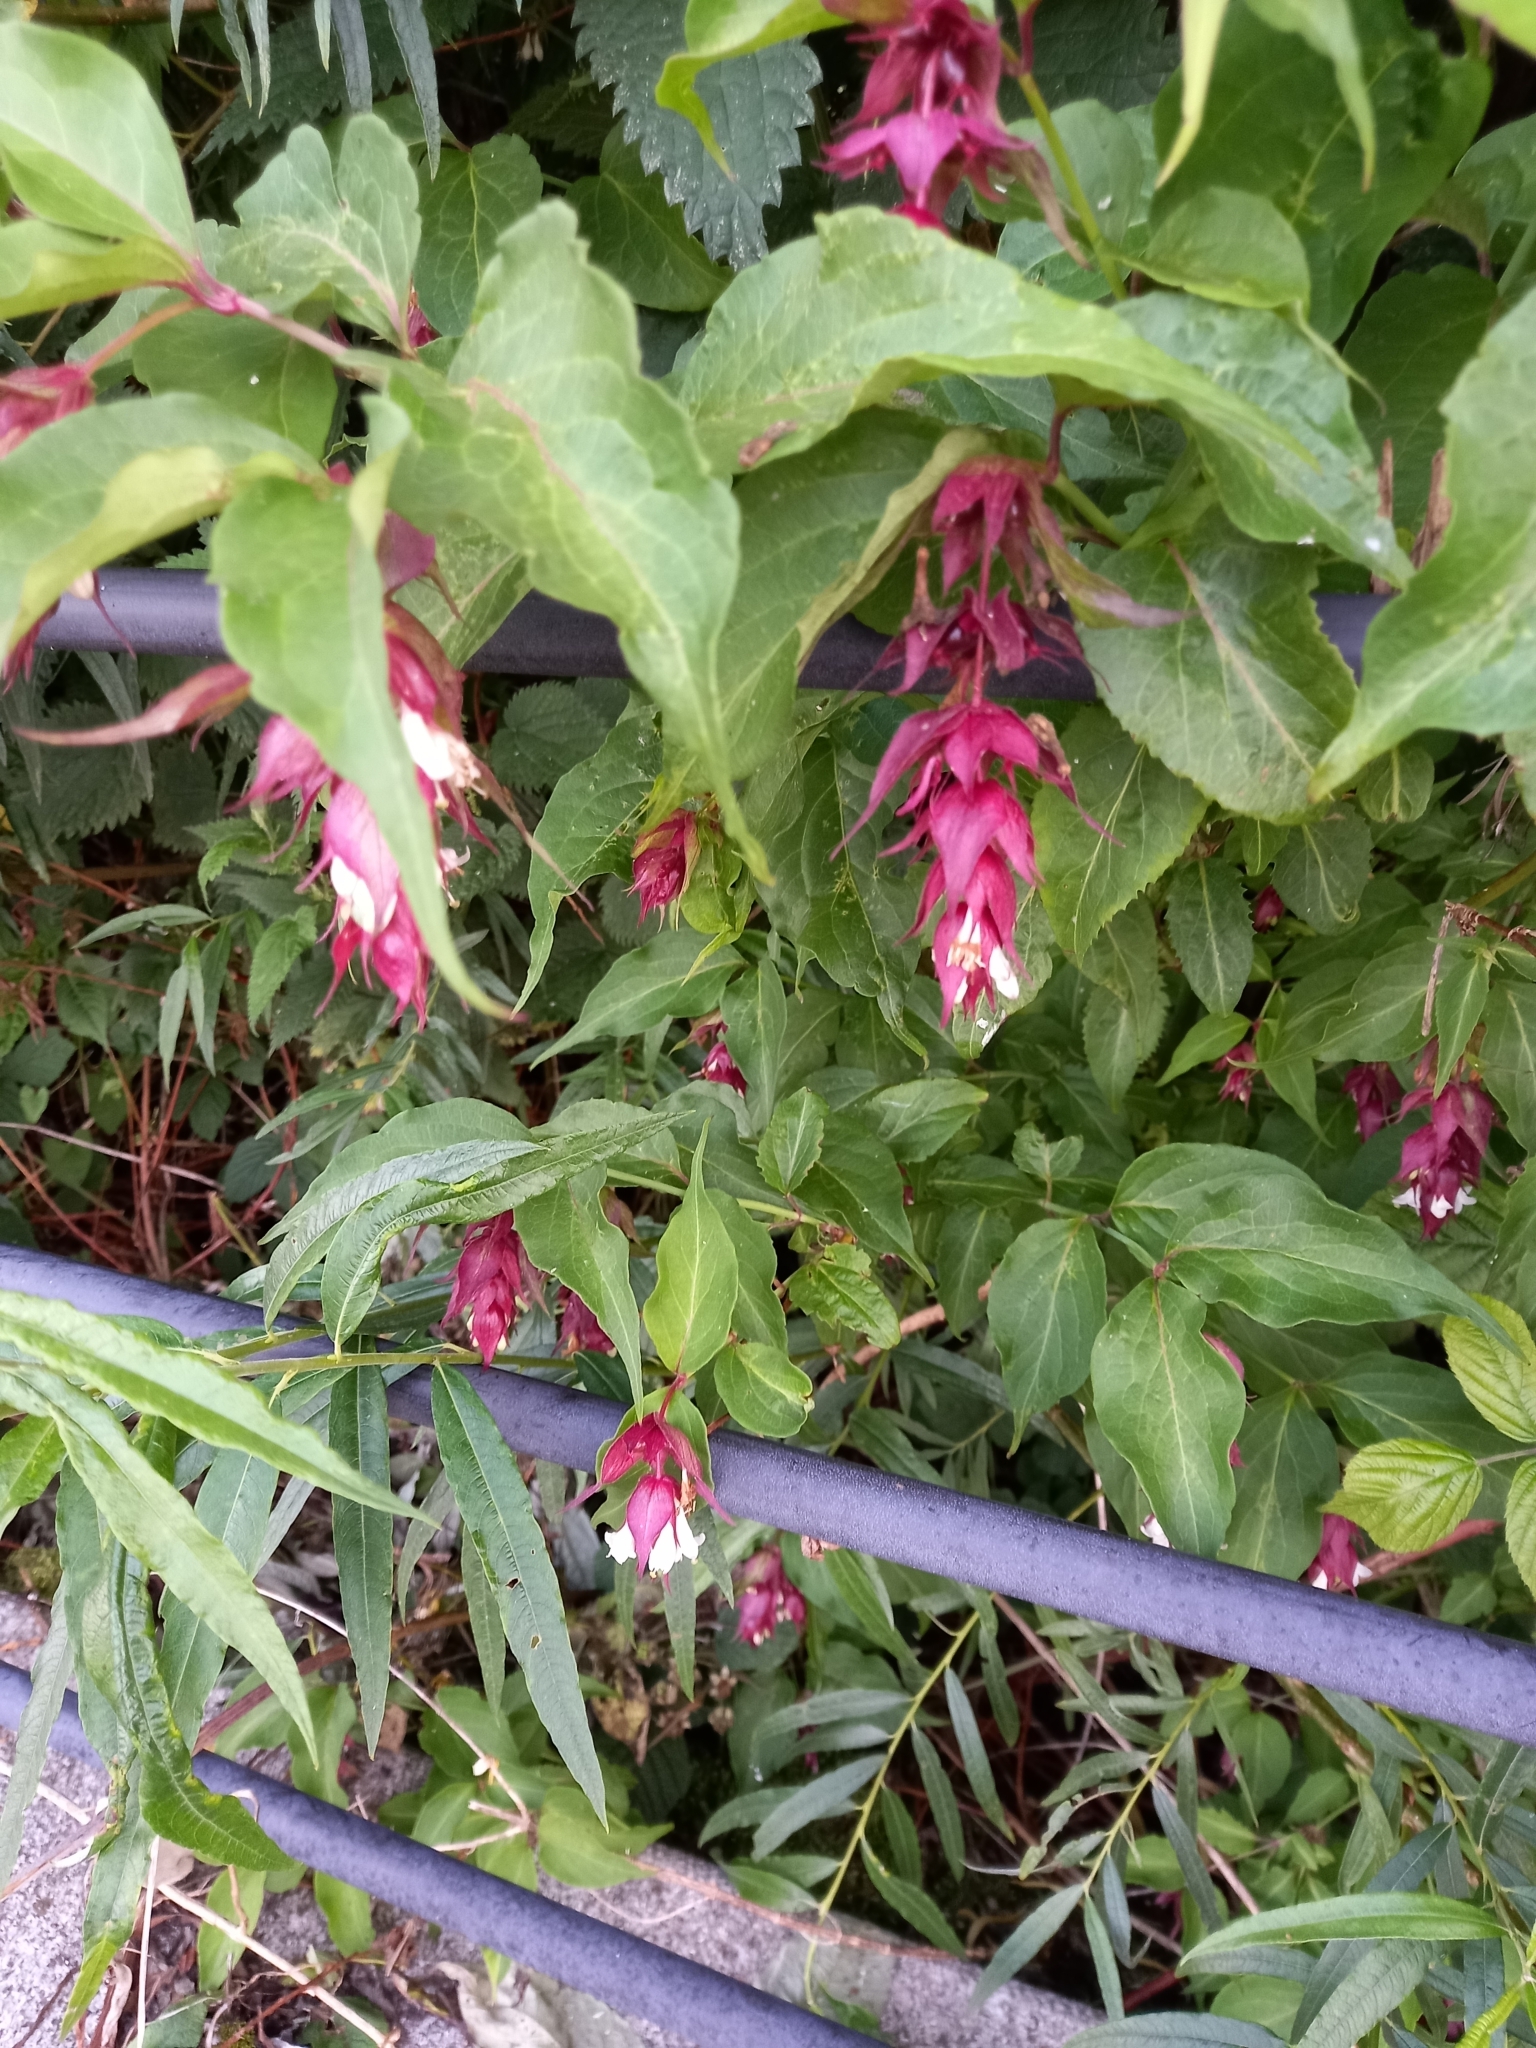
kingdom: Plantae
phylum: Tracheophyta
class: Magnoliopsida
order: Dipsacales
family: Caprifoliaceae
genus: Leycesteria
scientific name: Leycesteria formosa
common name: Himalayan honeysuckle
